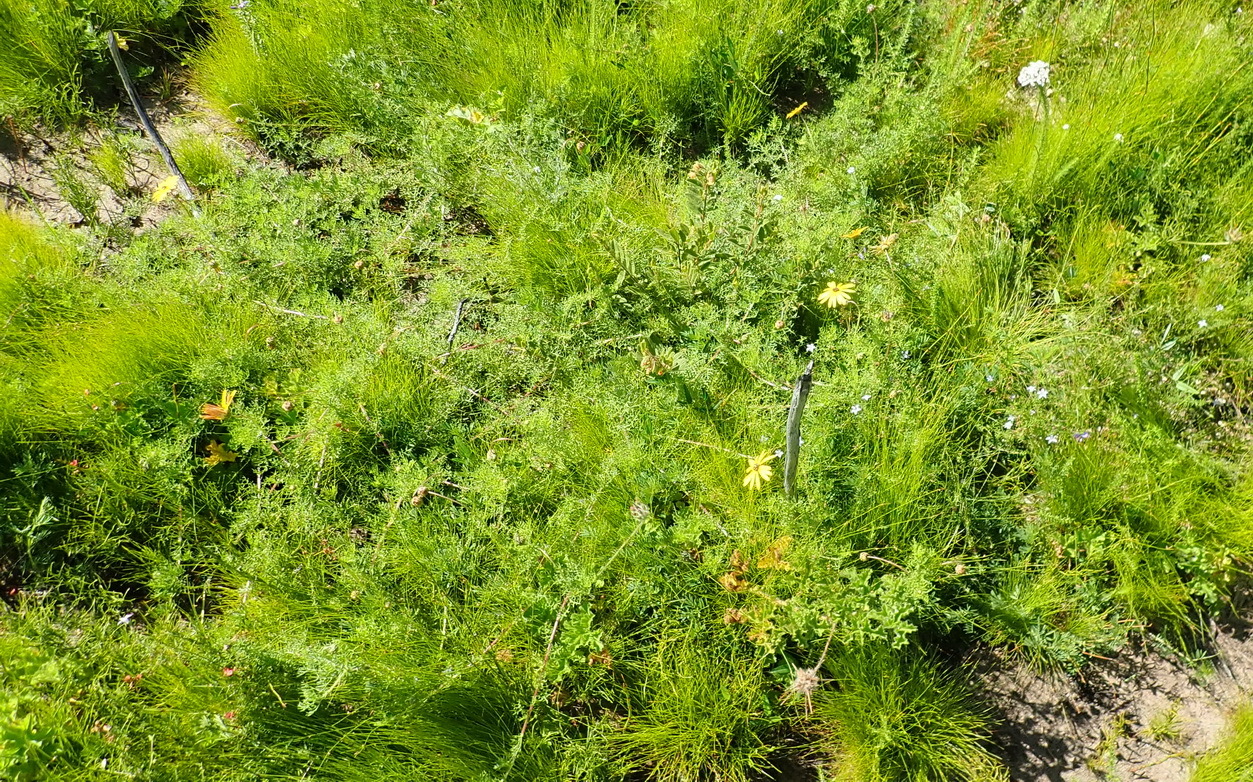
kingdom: Plantae
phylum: Tracheophyta
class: Magnoliopsida
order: Asterales
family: Asteraceae
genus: Ursinia
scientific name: Ursinia chrysanthemoides
